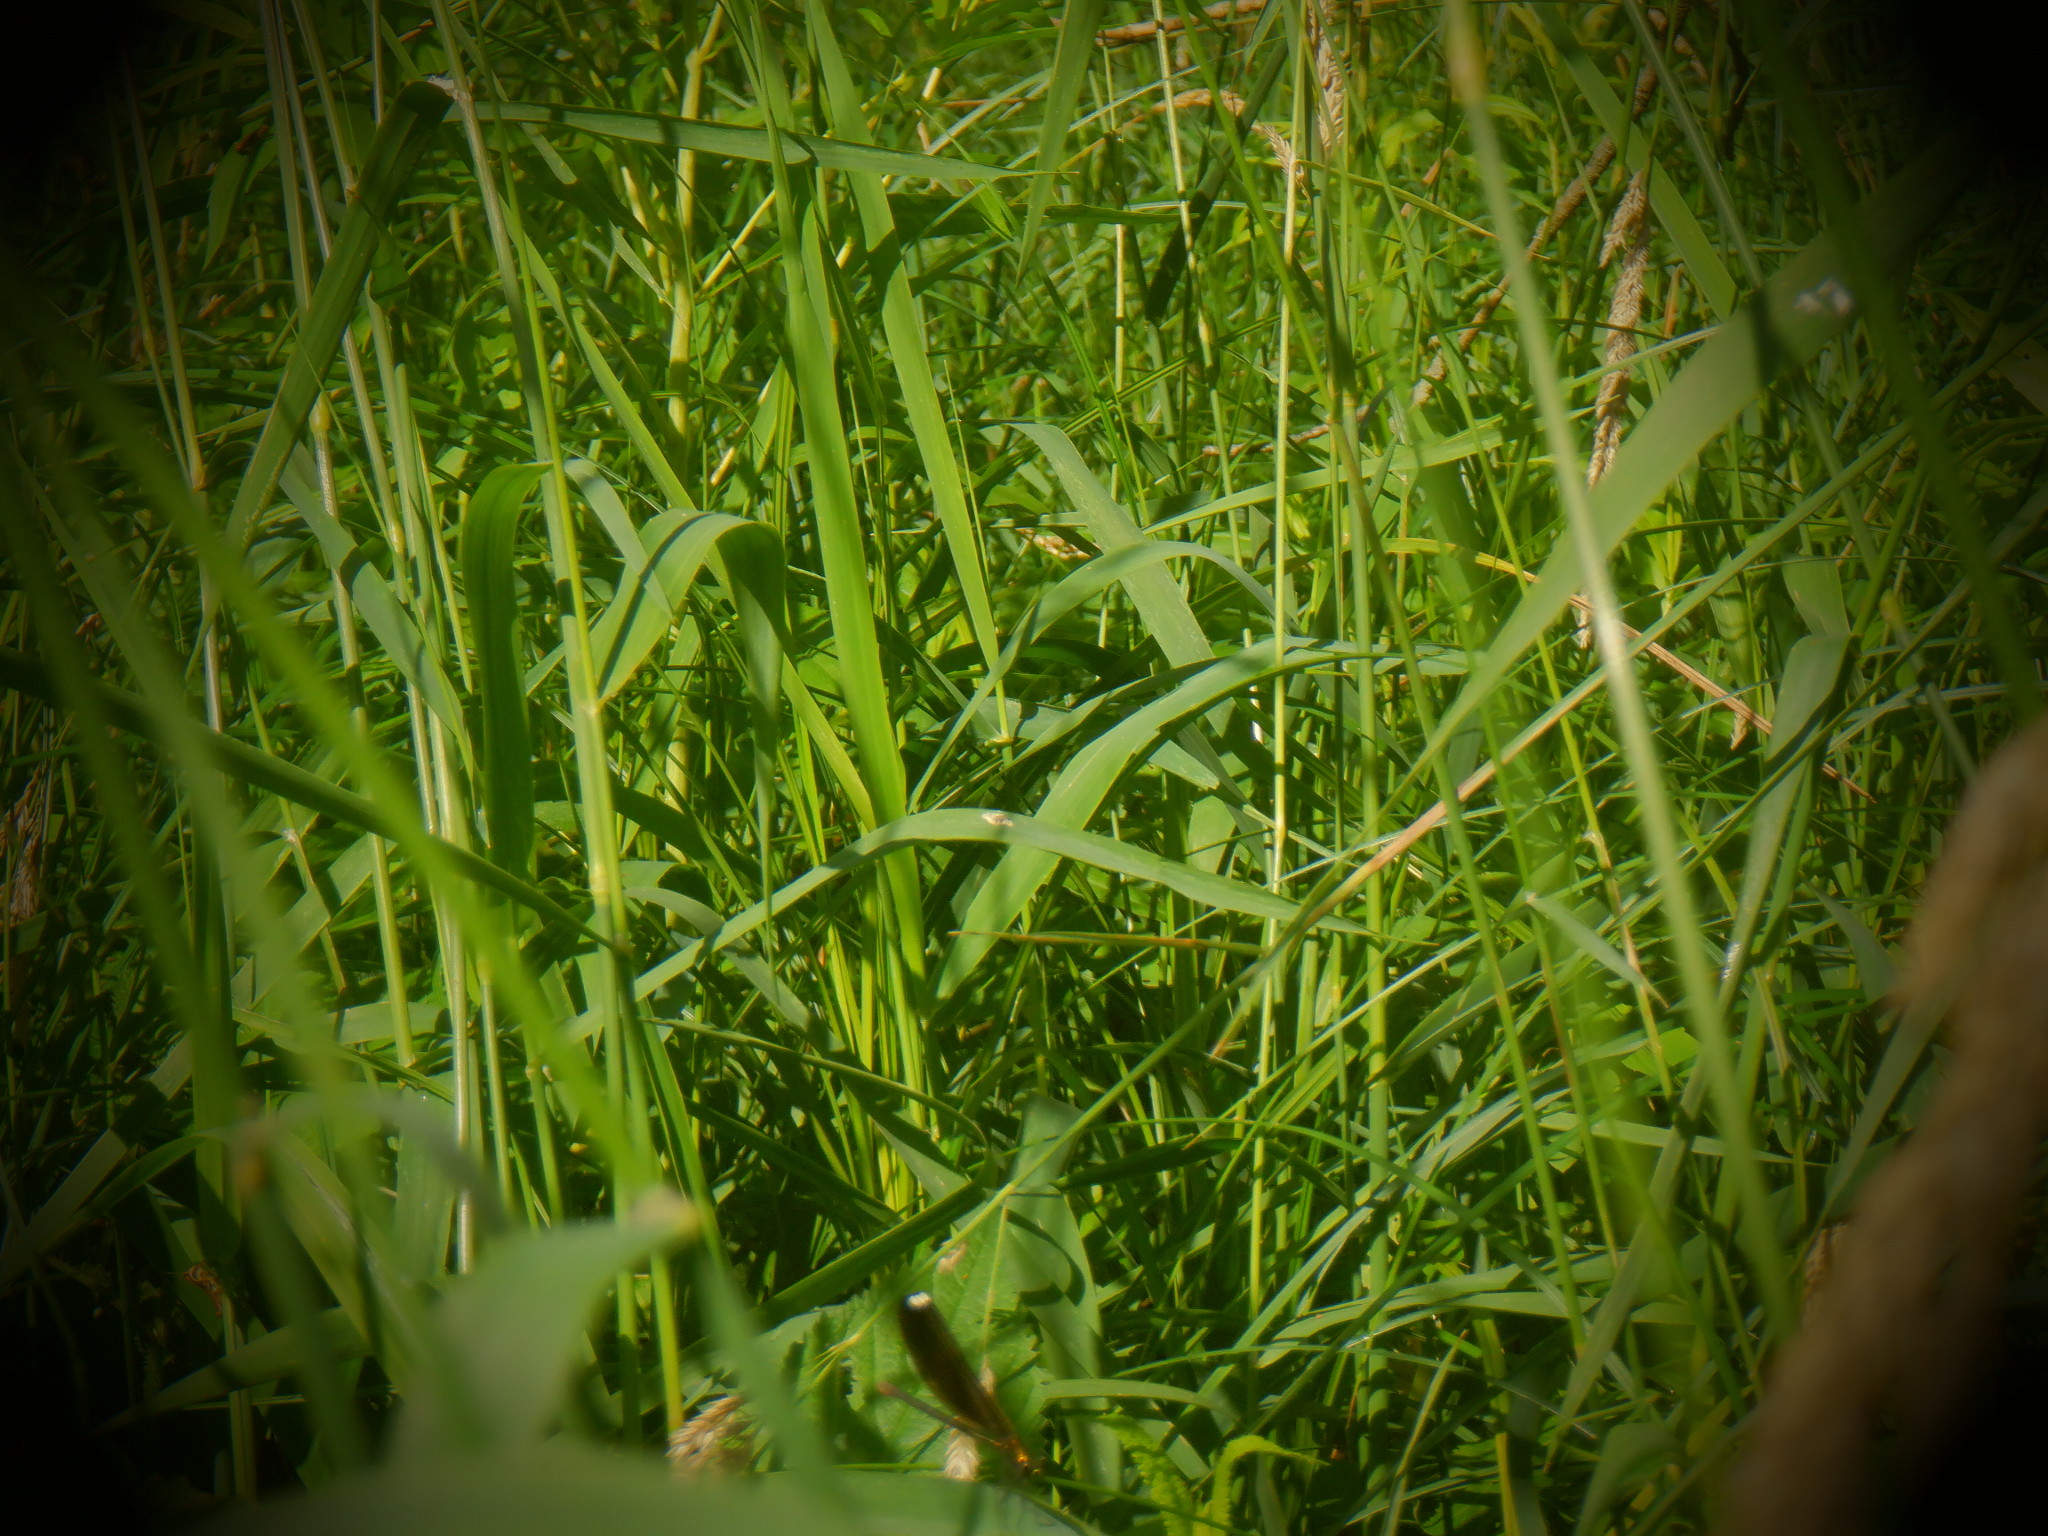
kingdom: Animalia
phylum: Arthropoda
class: Insecta
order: Odonata
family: Calopterygidae
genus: Calopteryx
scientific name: Calopteryx maculata
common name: Ebony jewelwing
